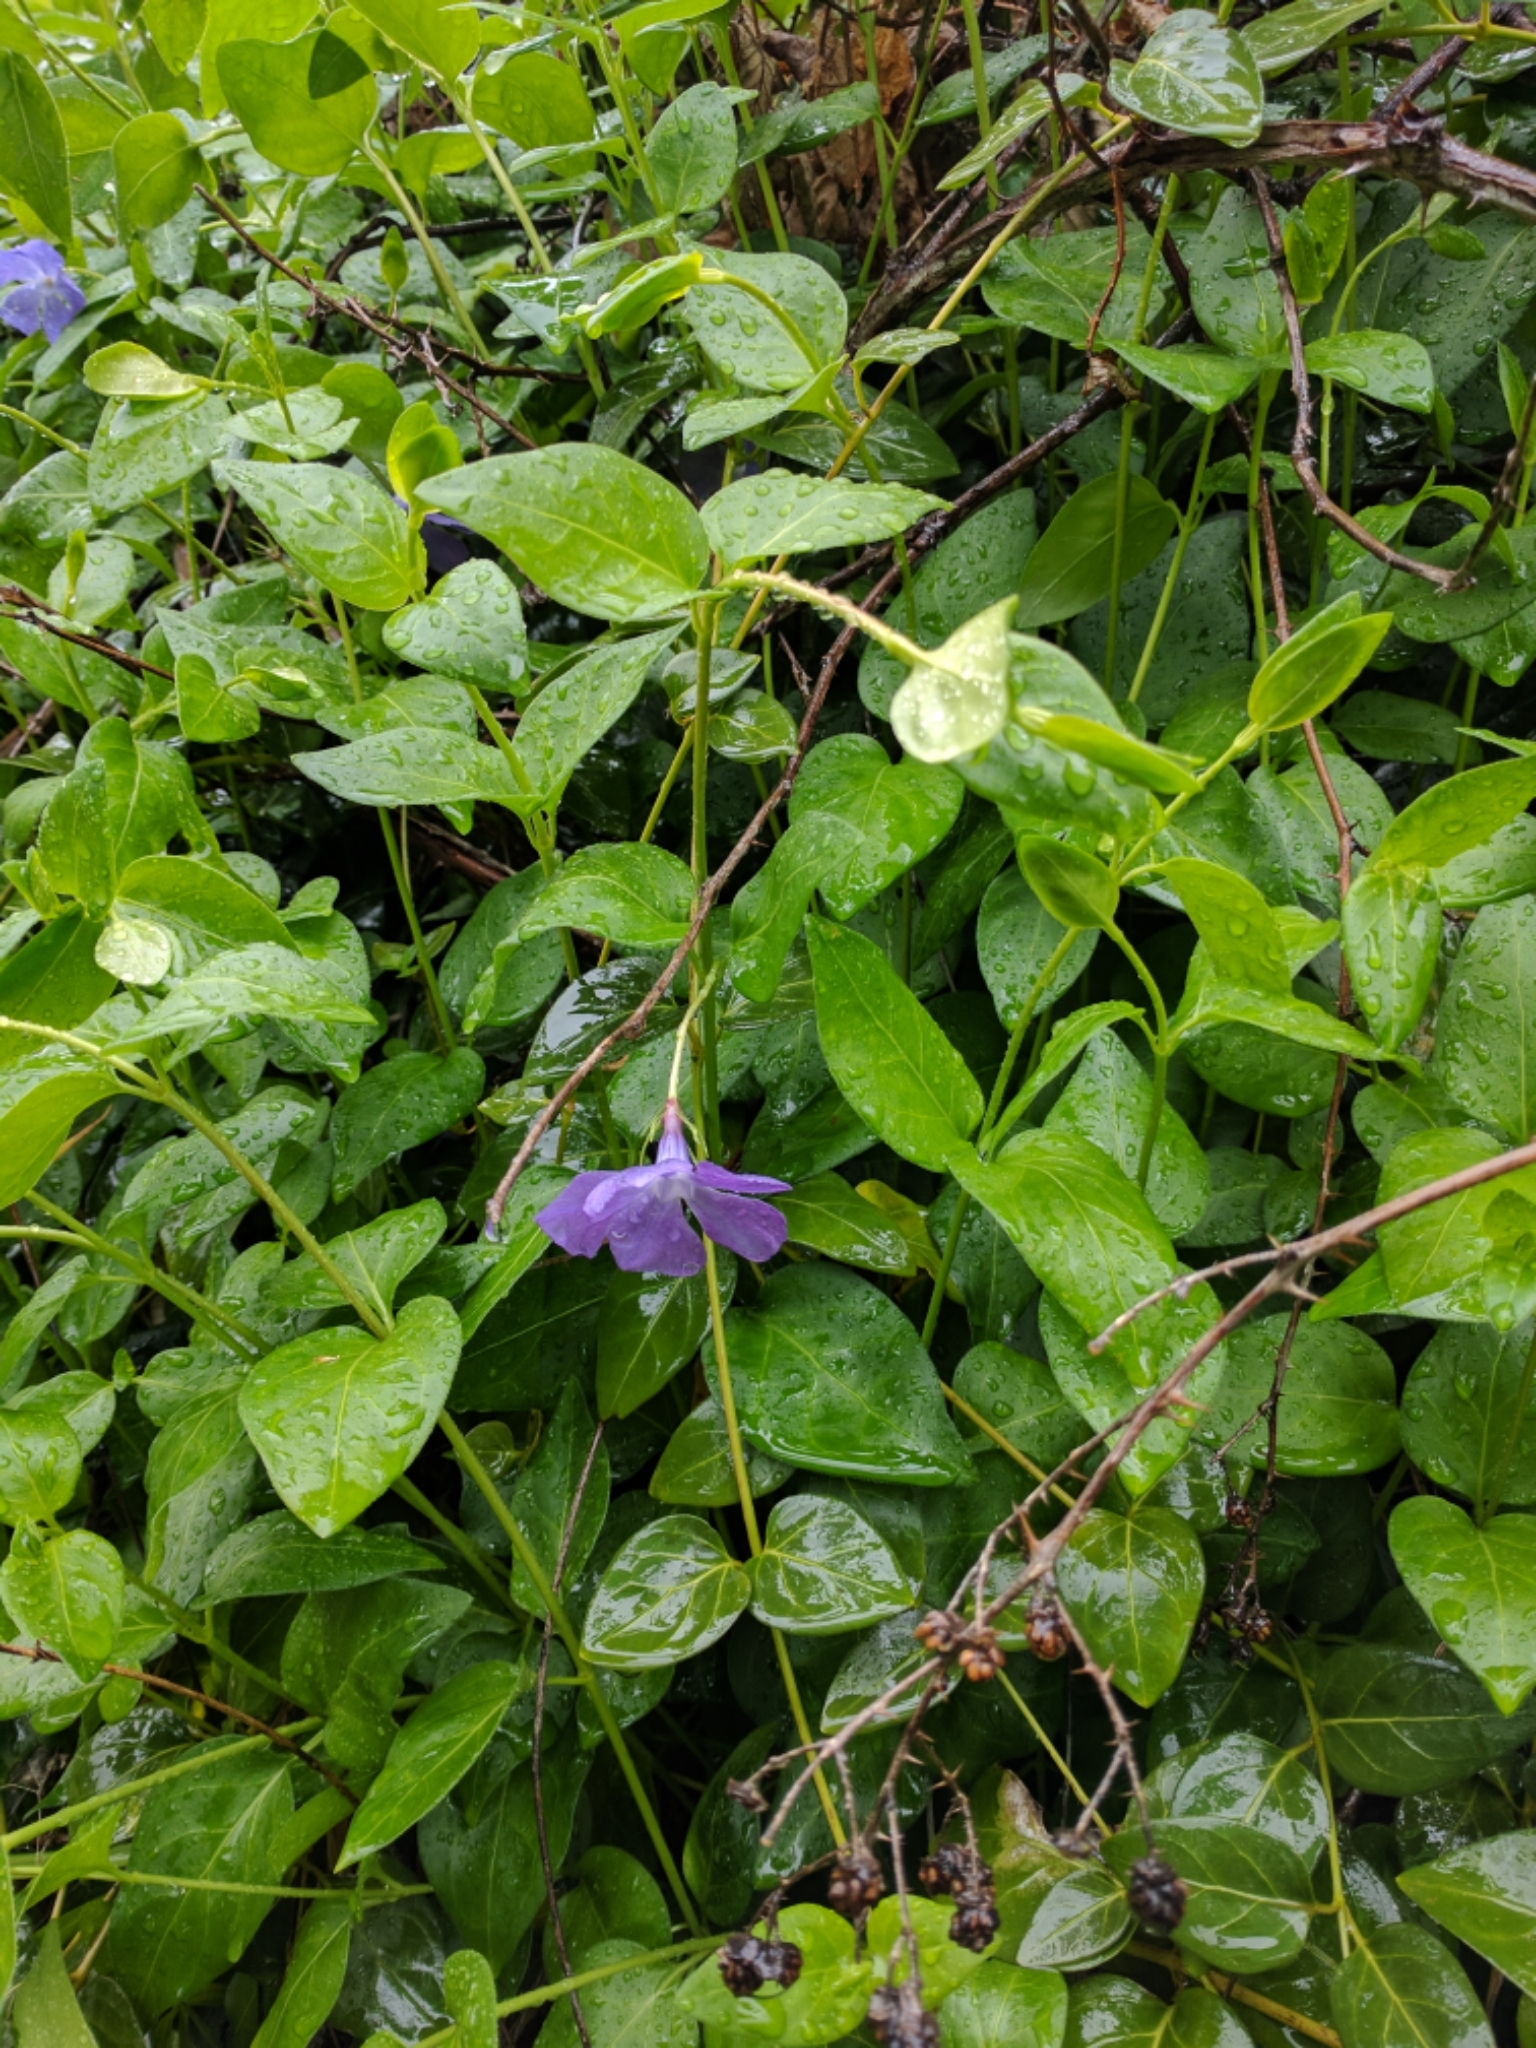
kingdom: Plantae
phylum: Tracheophyta
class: Magnoliopsida
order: Gentianales
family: Apocynaceae
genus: Vinca
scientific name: Vinca major
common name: Greater periwinkle
